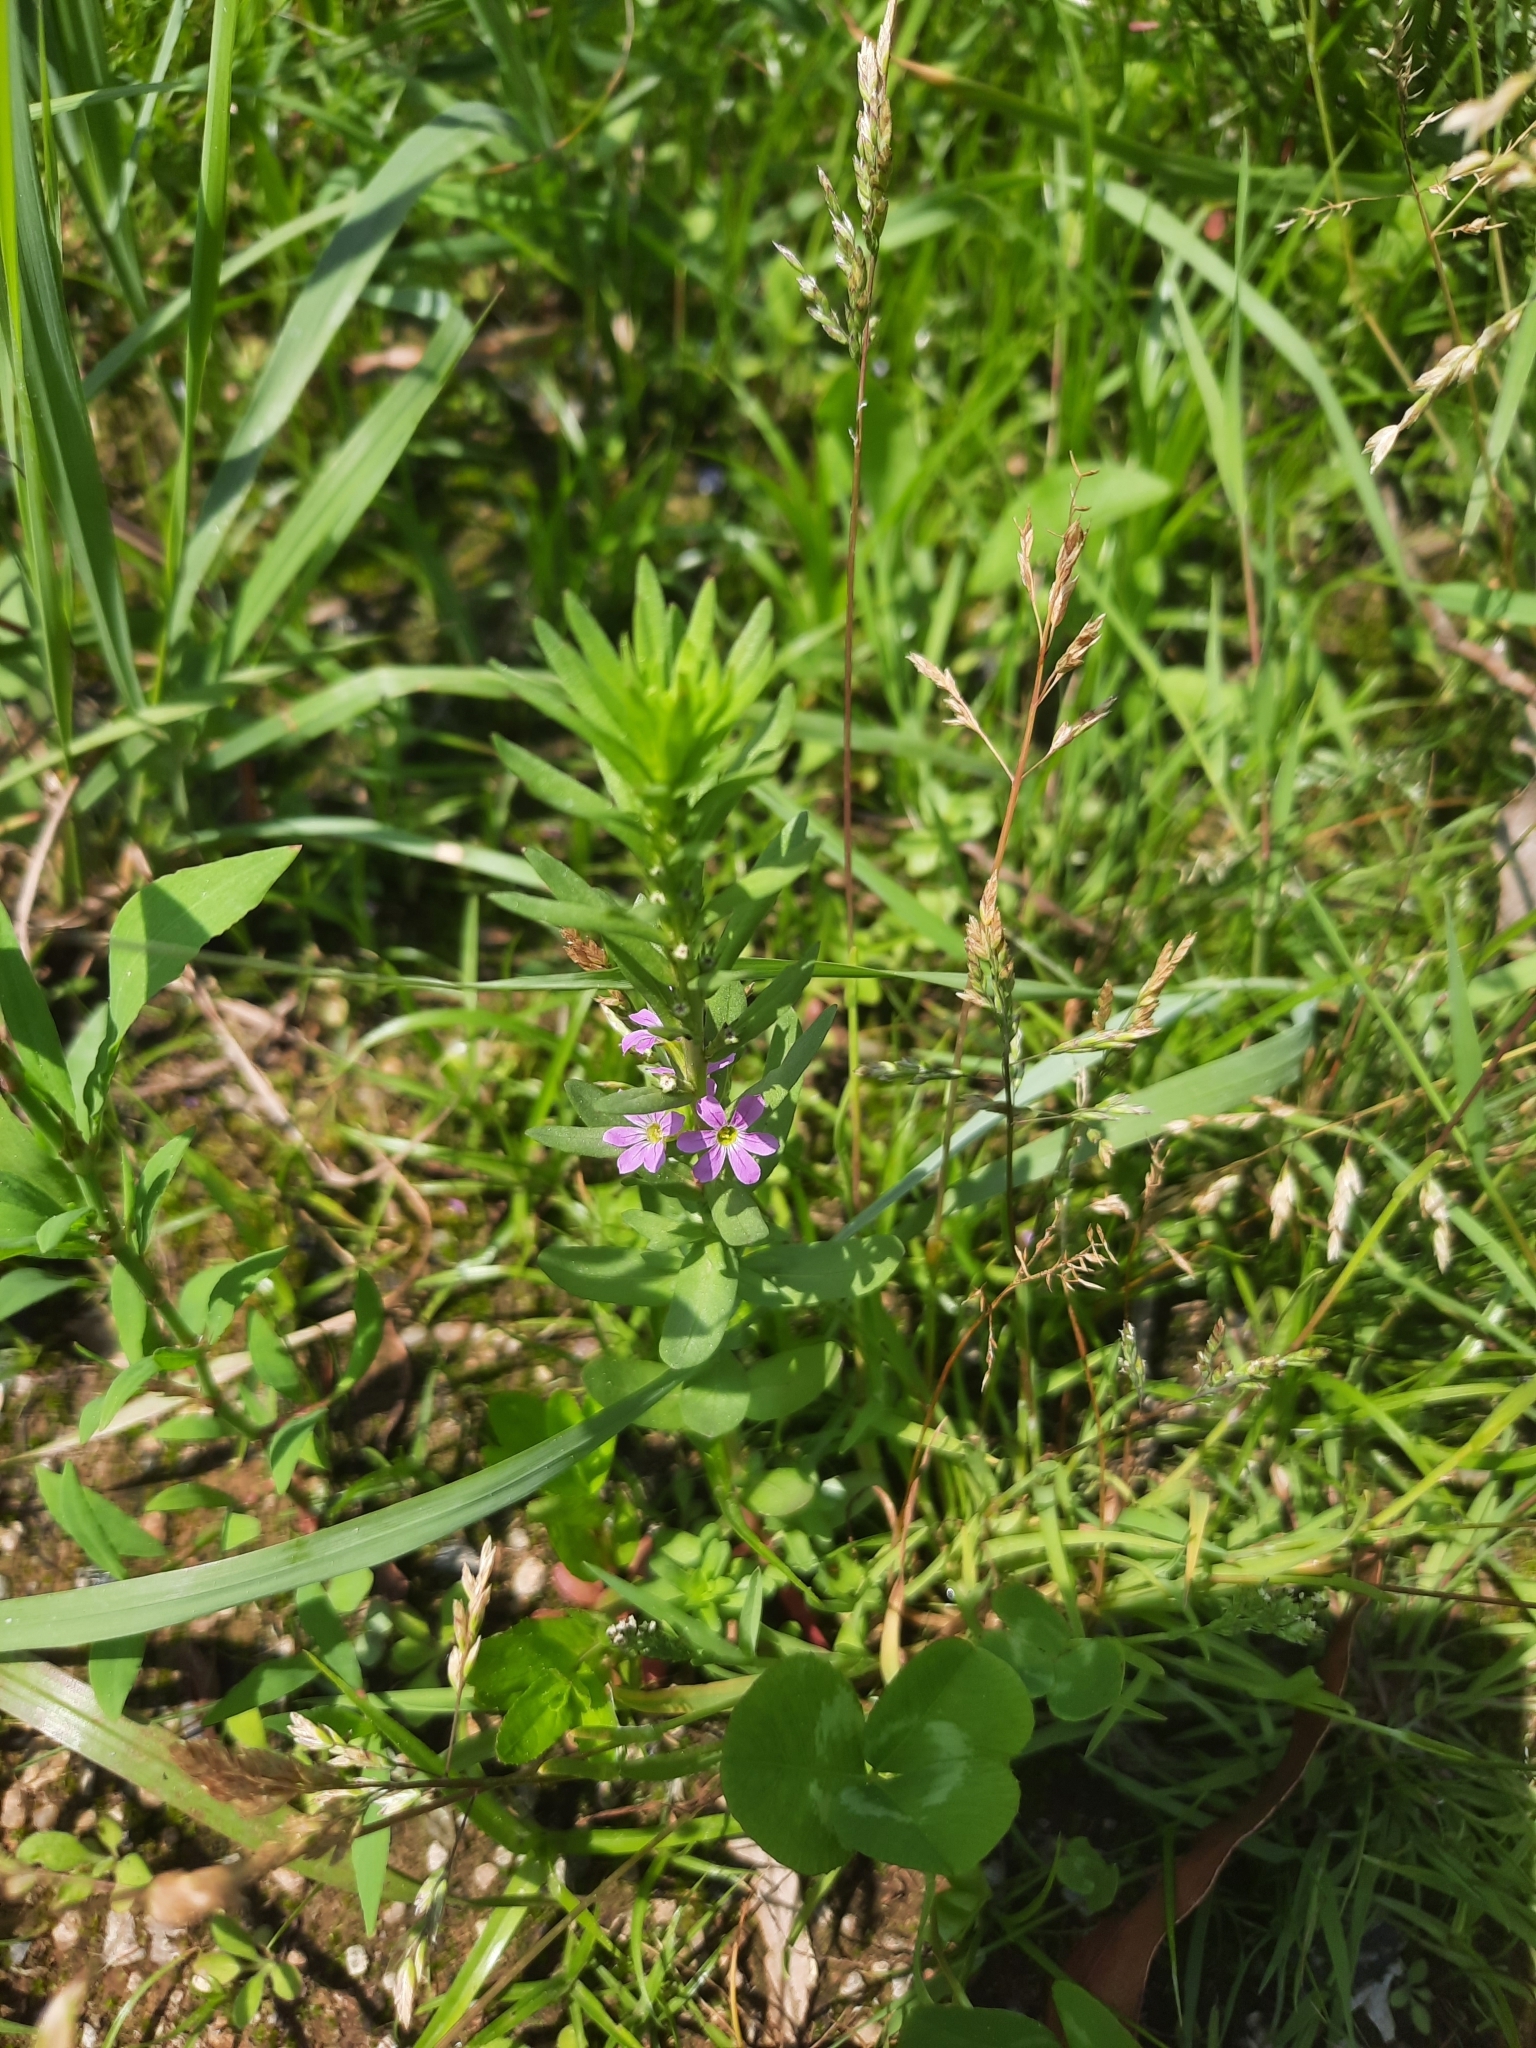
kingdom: Plantae
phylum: Tracheophyta
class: Magnoliopsida
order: Myrtales
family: Lythraceae
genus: Lythrum
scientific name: Lythrum hyssopifolia
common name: Grass-poly
